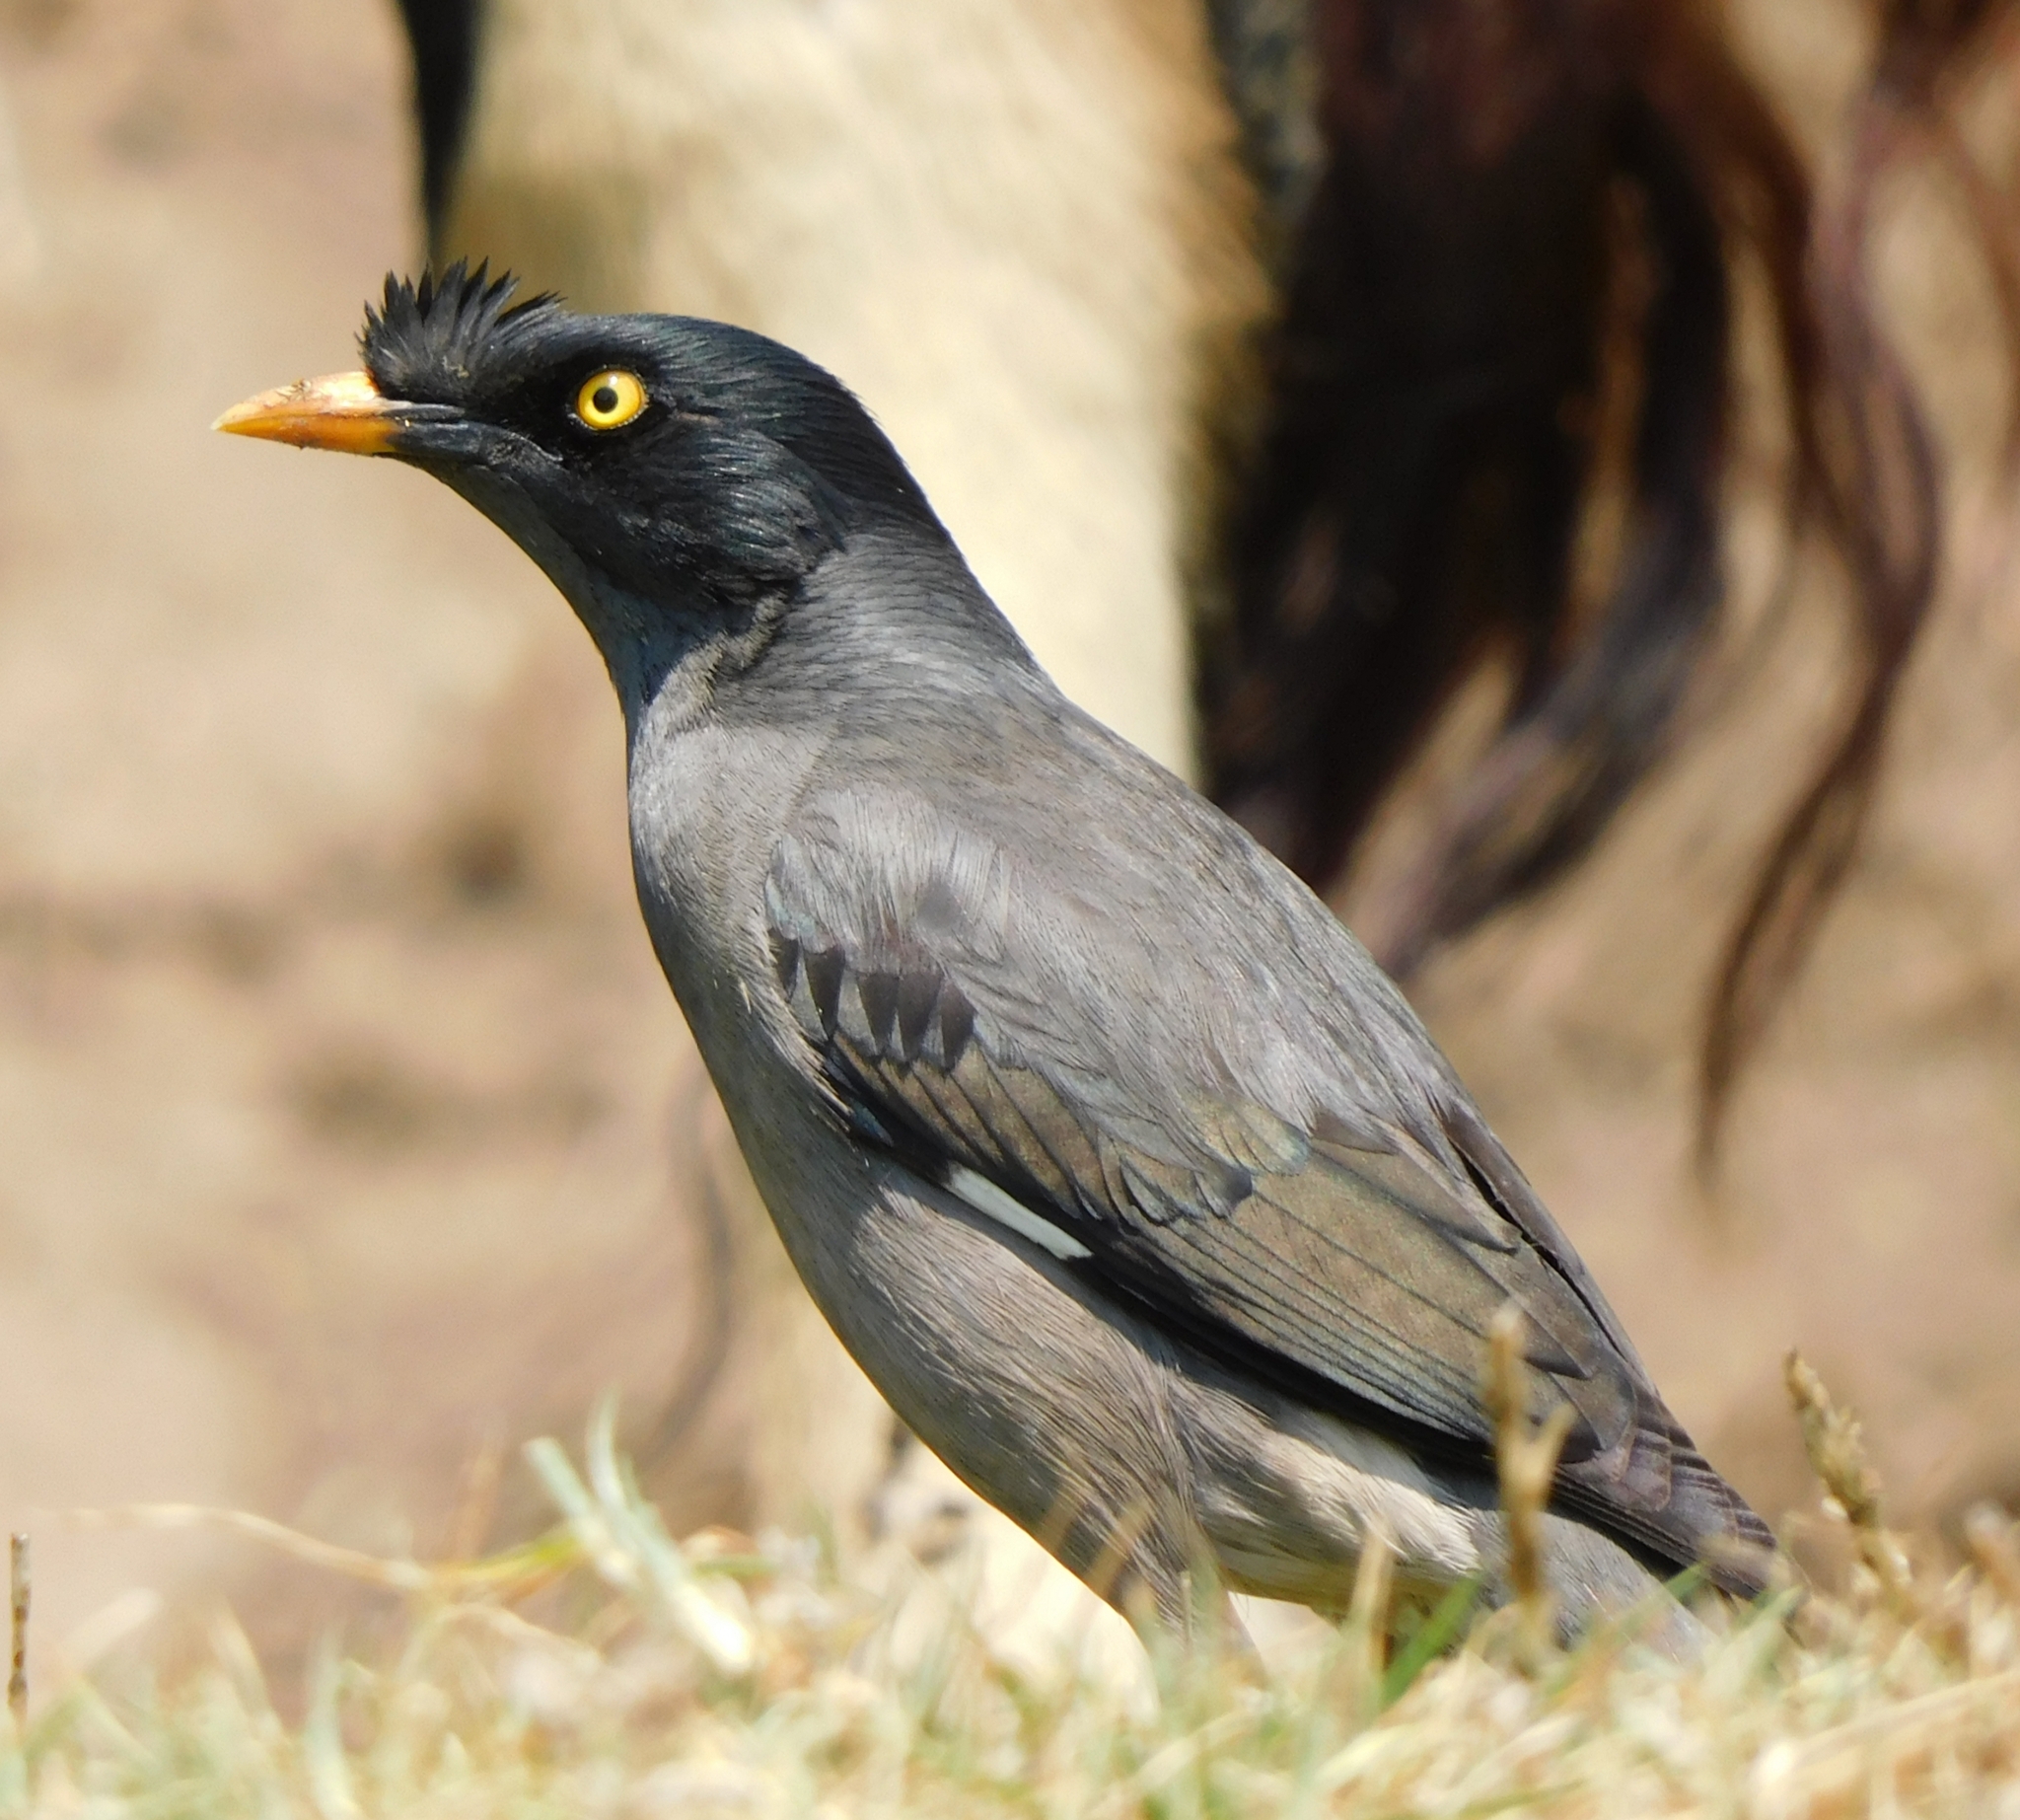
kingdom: Animalia
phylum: Chordata
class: Aves
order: Passeriformes
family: Sturnidae
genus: Acridotheres
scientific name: Acridotheres fuscus
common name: Jungle myna
